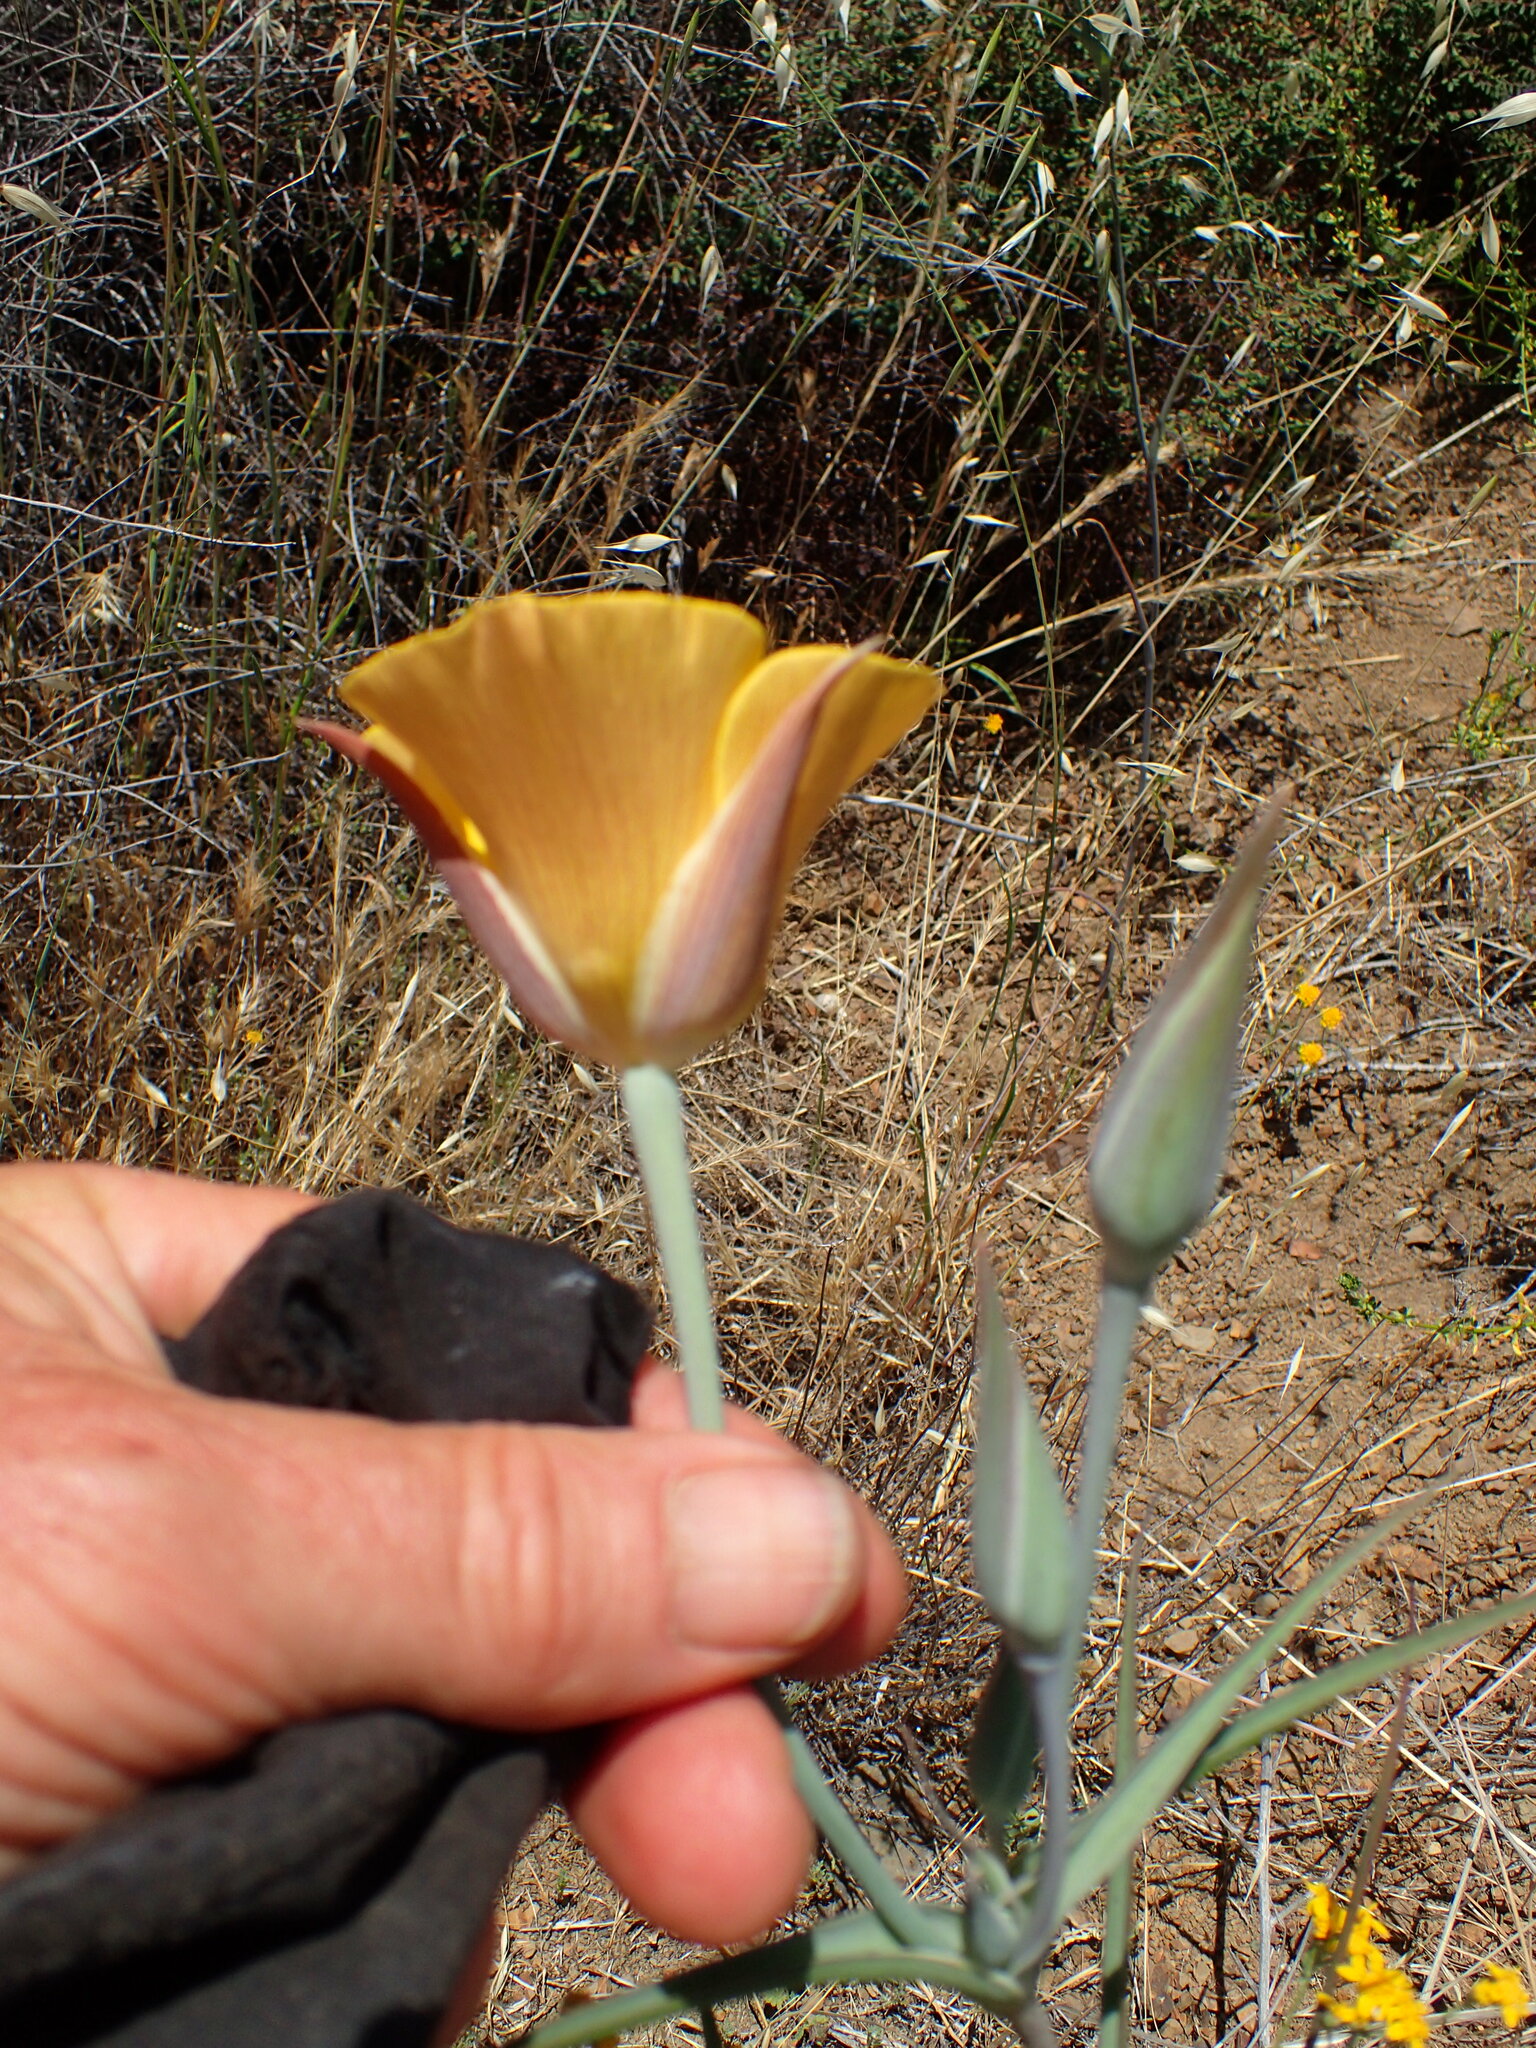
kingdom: Plantae
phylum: Tracheophyta
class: Liliopsida
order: Liliales
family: Liliaceae
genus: Calochortus
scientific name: Calochortus clavatus
